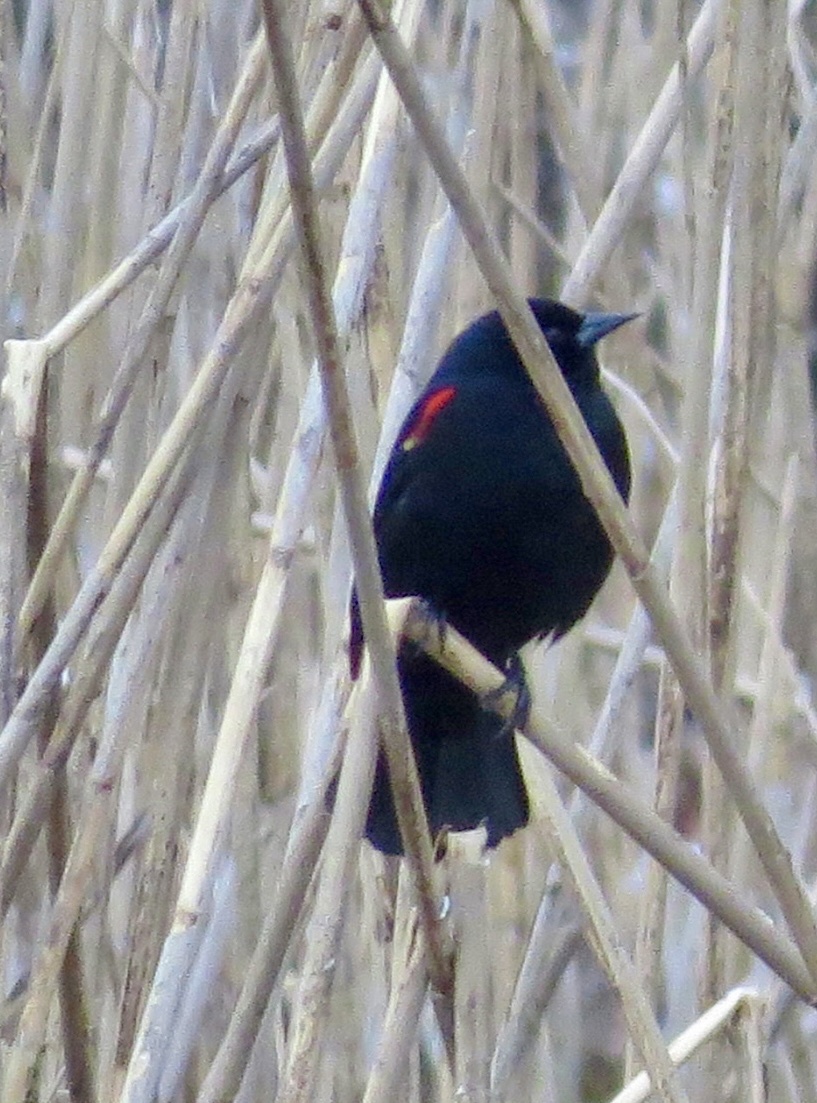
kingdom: Animalia
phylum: Chordata
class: Aves
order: Passeriformes
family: Icteridae
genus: Agelaius
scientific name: Agelaius phoeniceus
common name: Red-winged blackbird
